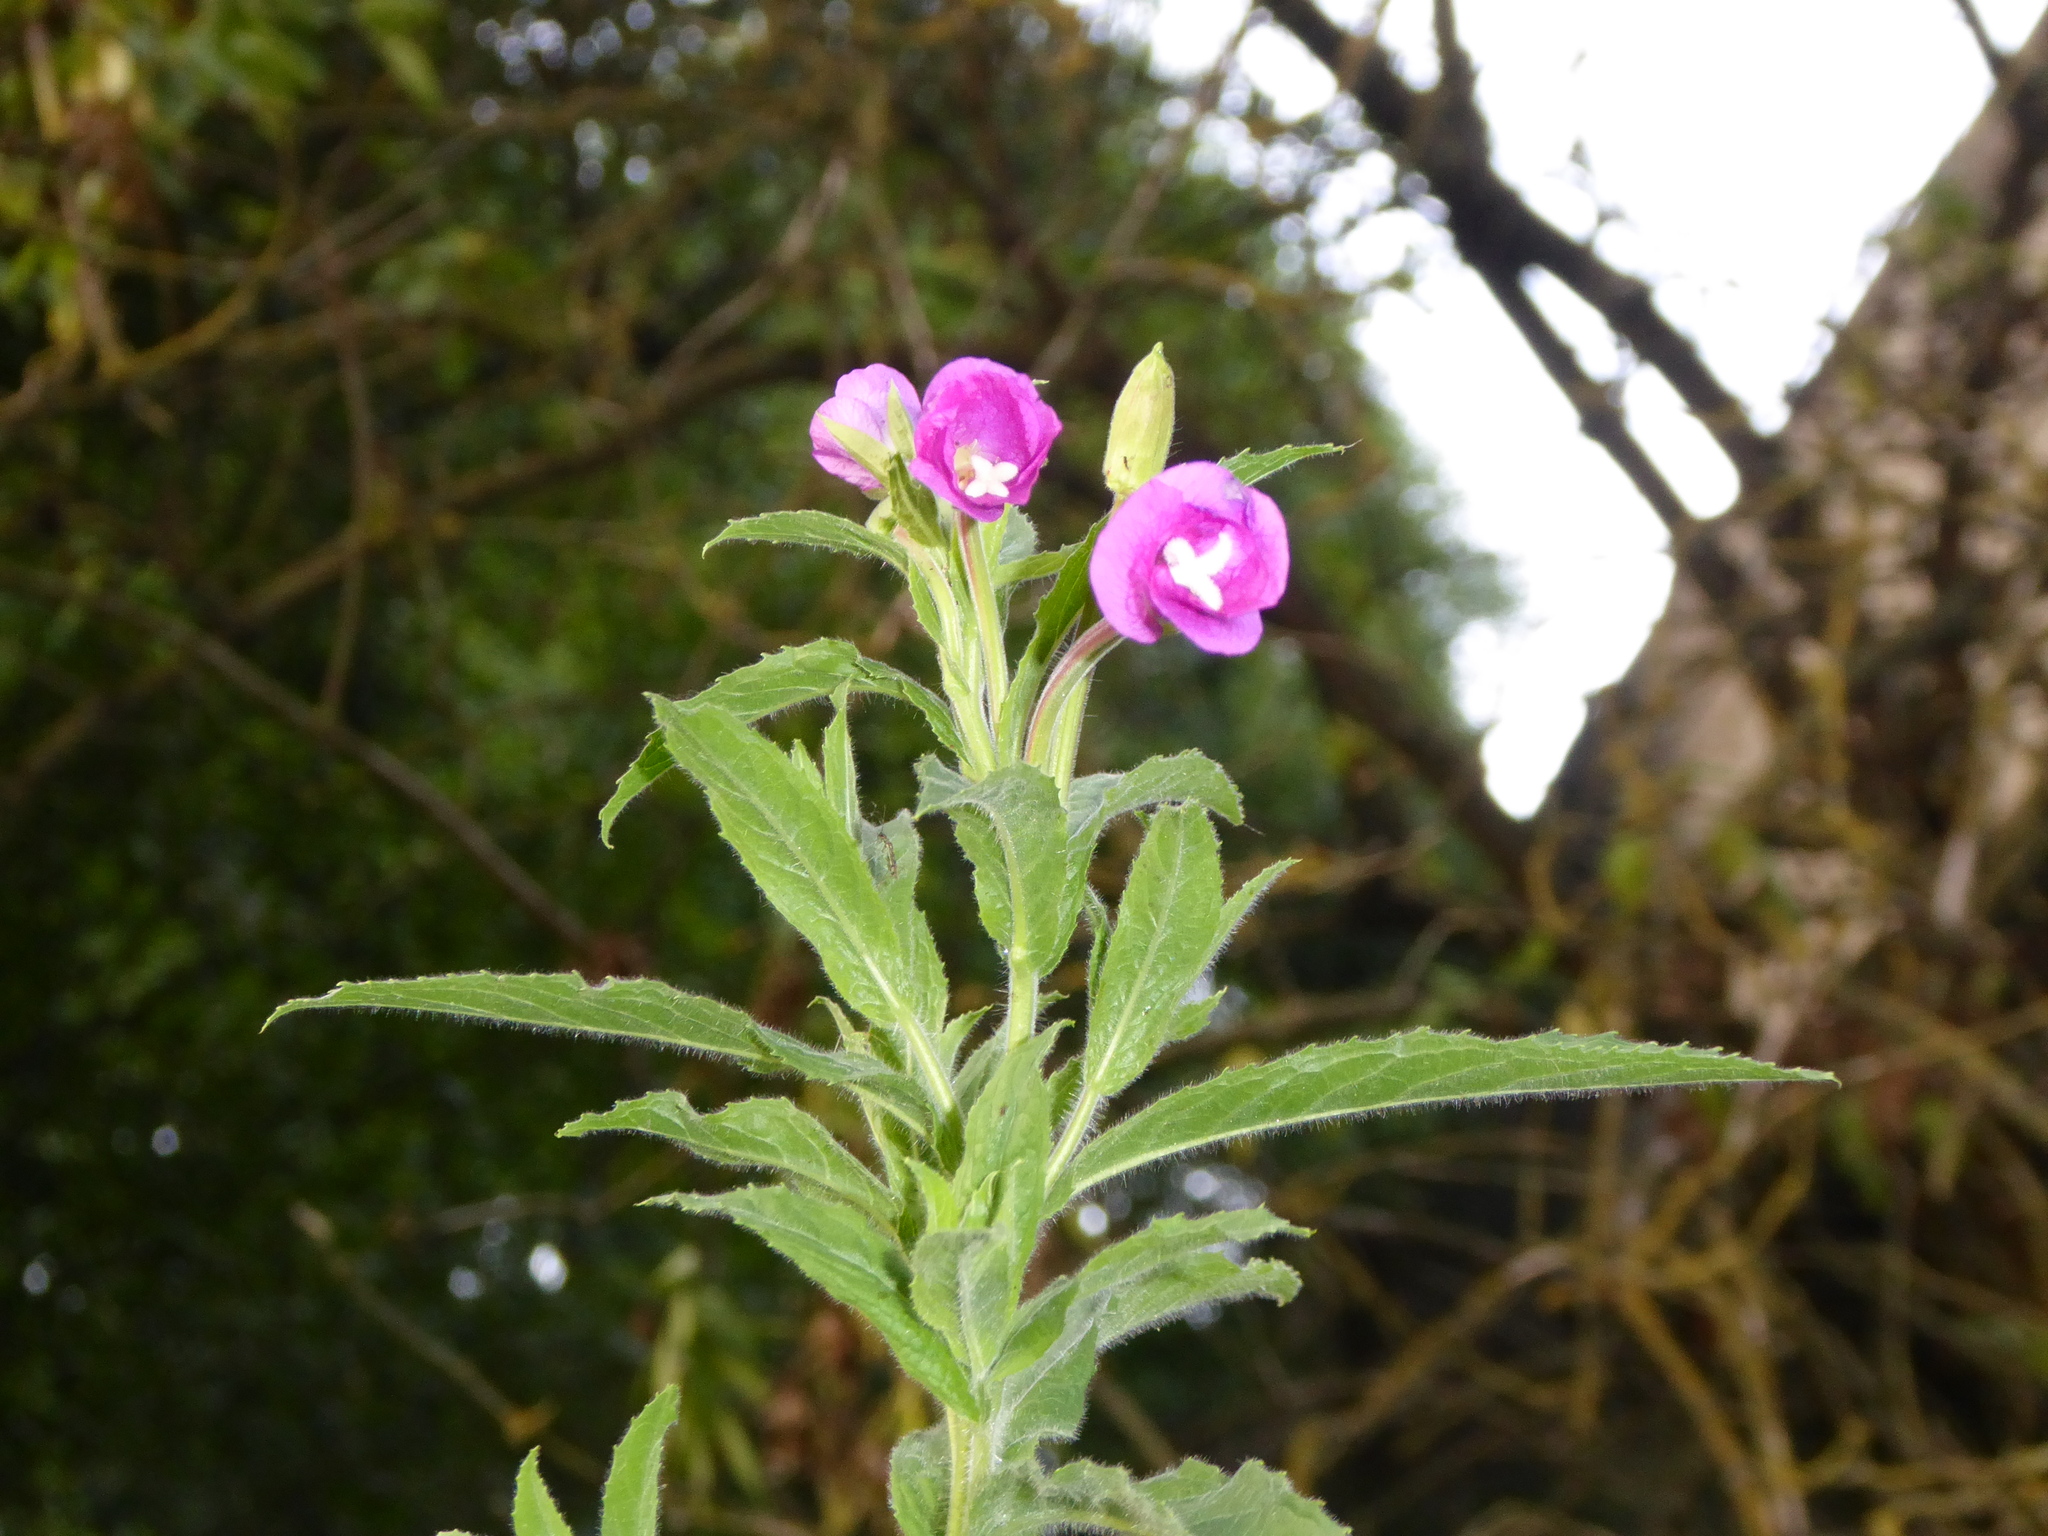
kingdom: Plantae
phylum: Tracheophyta
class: Magnoliopsida
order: Myrtales
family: Onagraceae
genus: Epilobium
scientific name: Epilobium hirsutum
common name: Great willowherb
